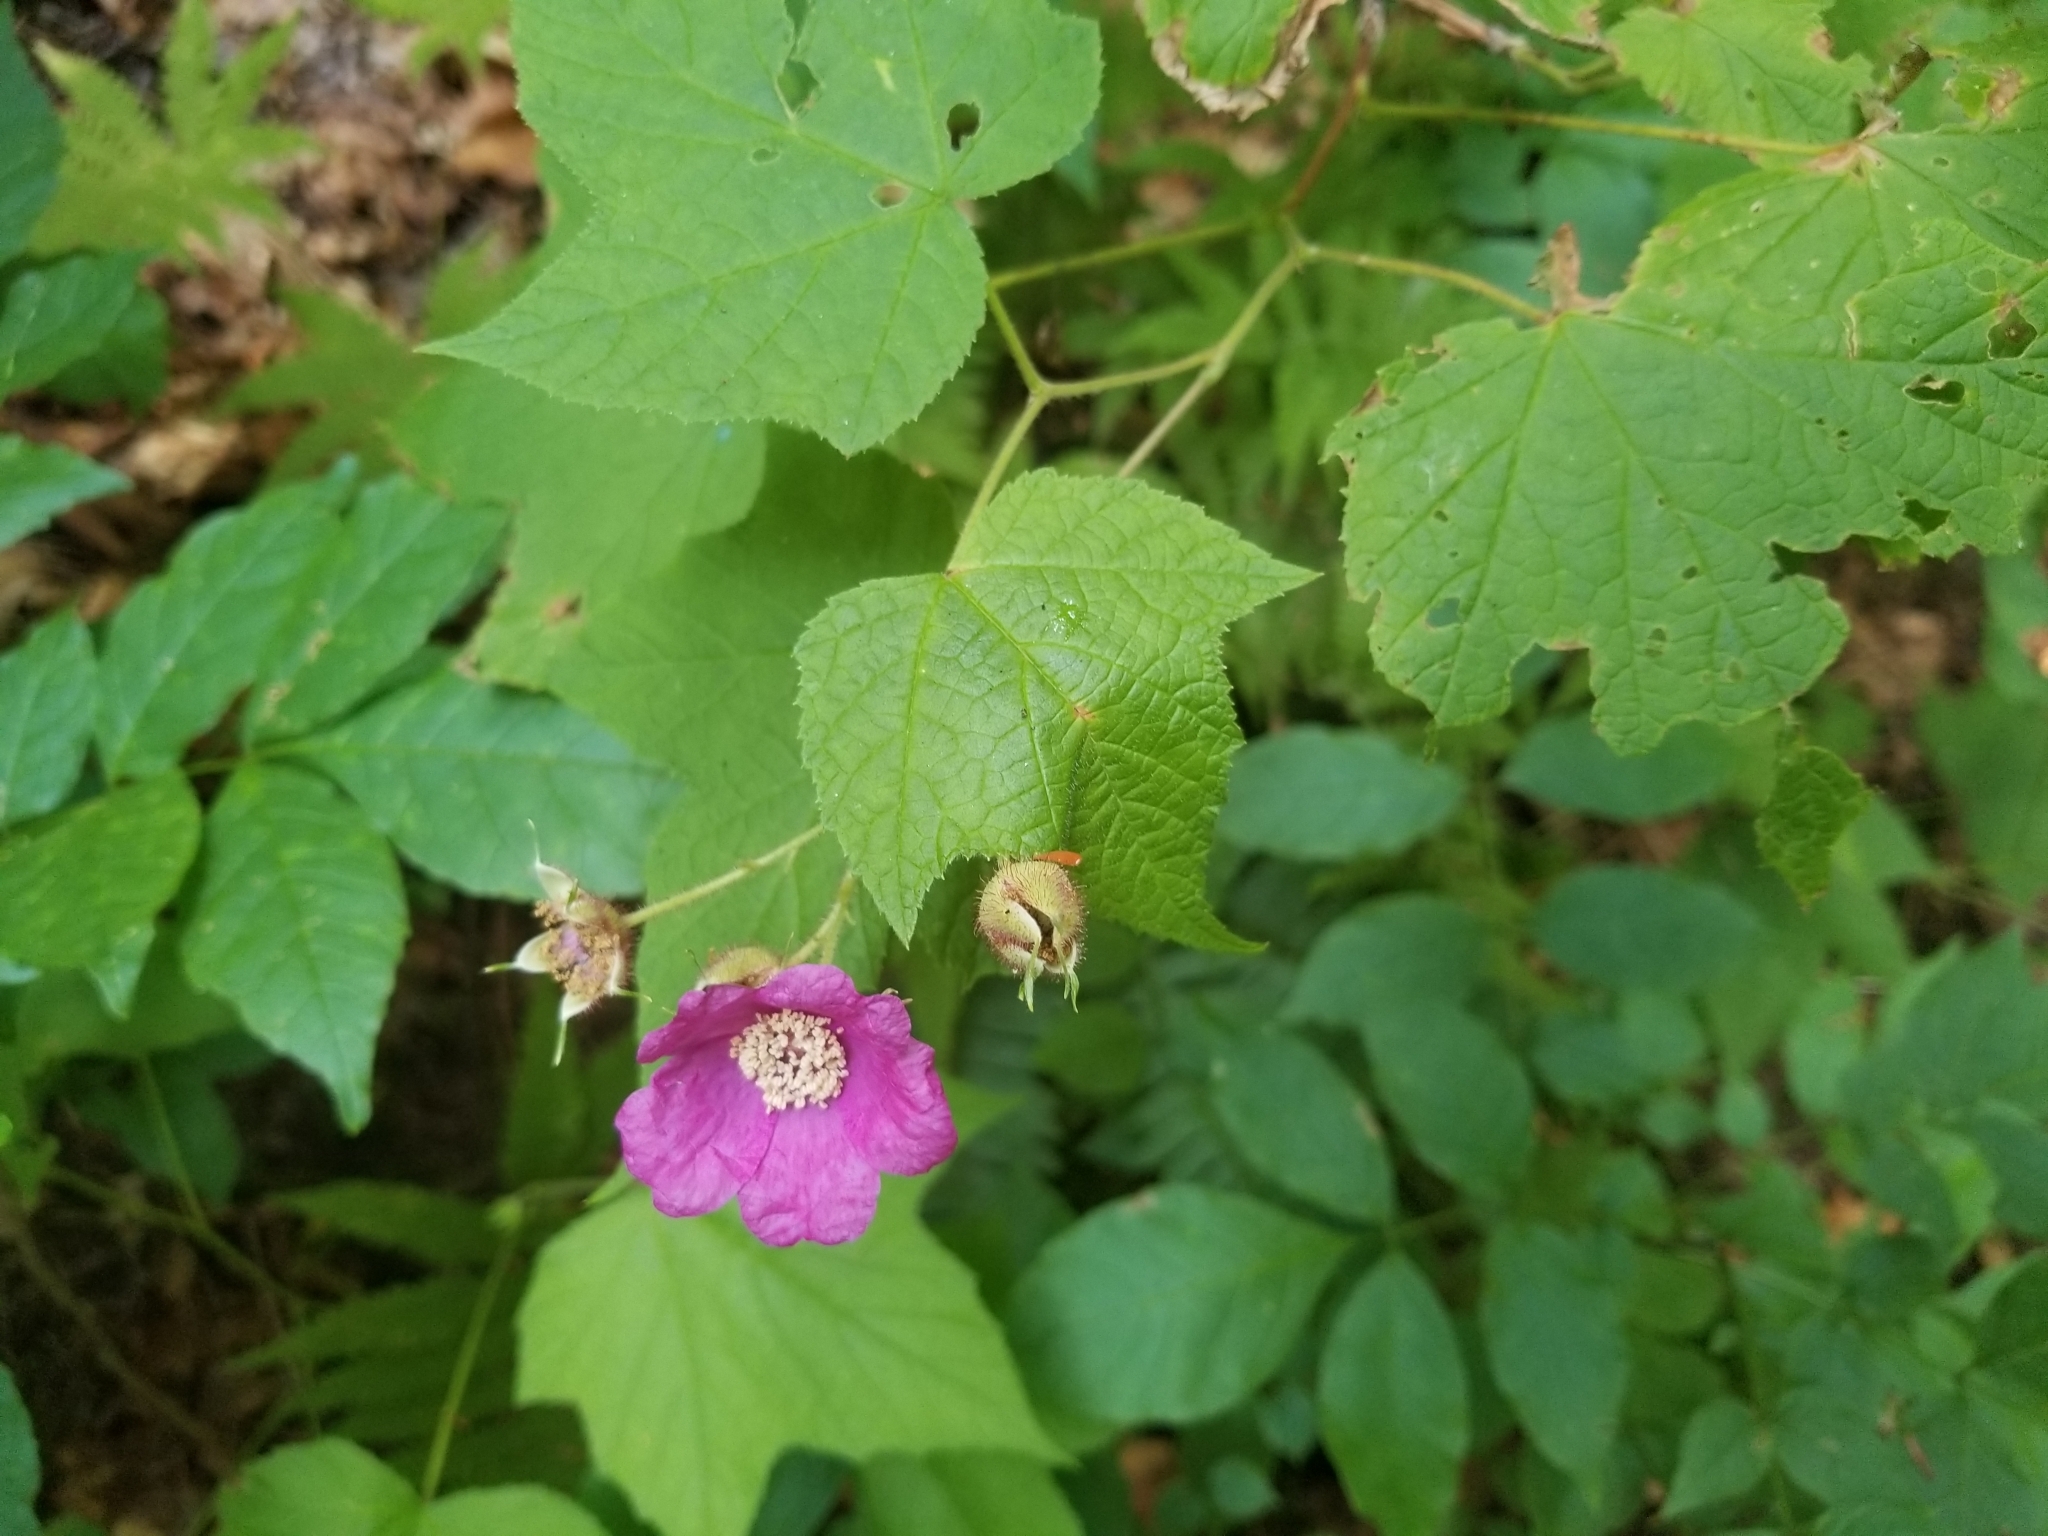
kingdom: Plantae
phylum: Tracheophyta
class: Magnoliopsida
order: Rosales
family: Rosaceae
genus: Rubus
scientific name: Rubus odoratus
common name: Purple-flowered raspberry
